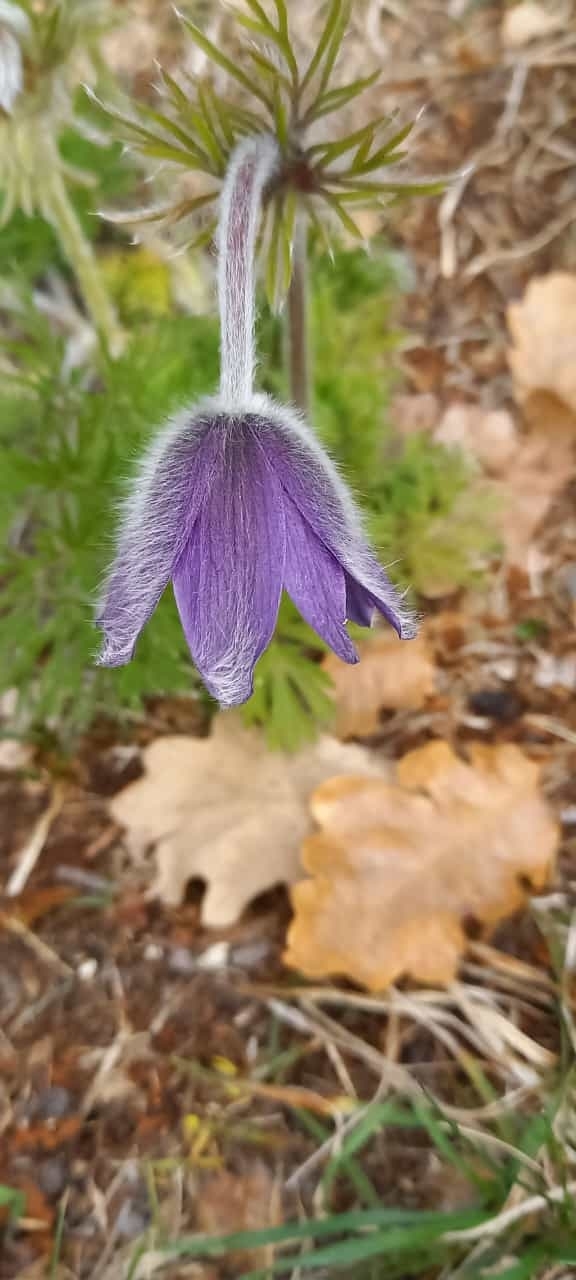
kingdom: Plantae
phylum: Tracheophyta
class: Magnoliopsida
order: Ranunculales
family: Ranunculaceae
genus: Pulsatilla
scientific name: Pulsatilla montana
